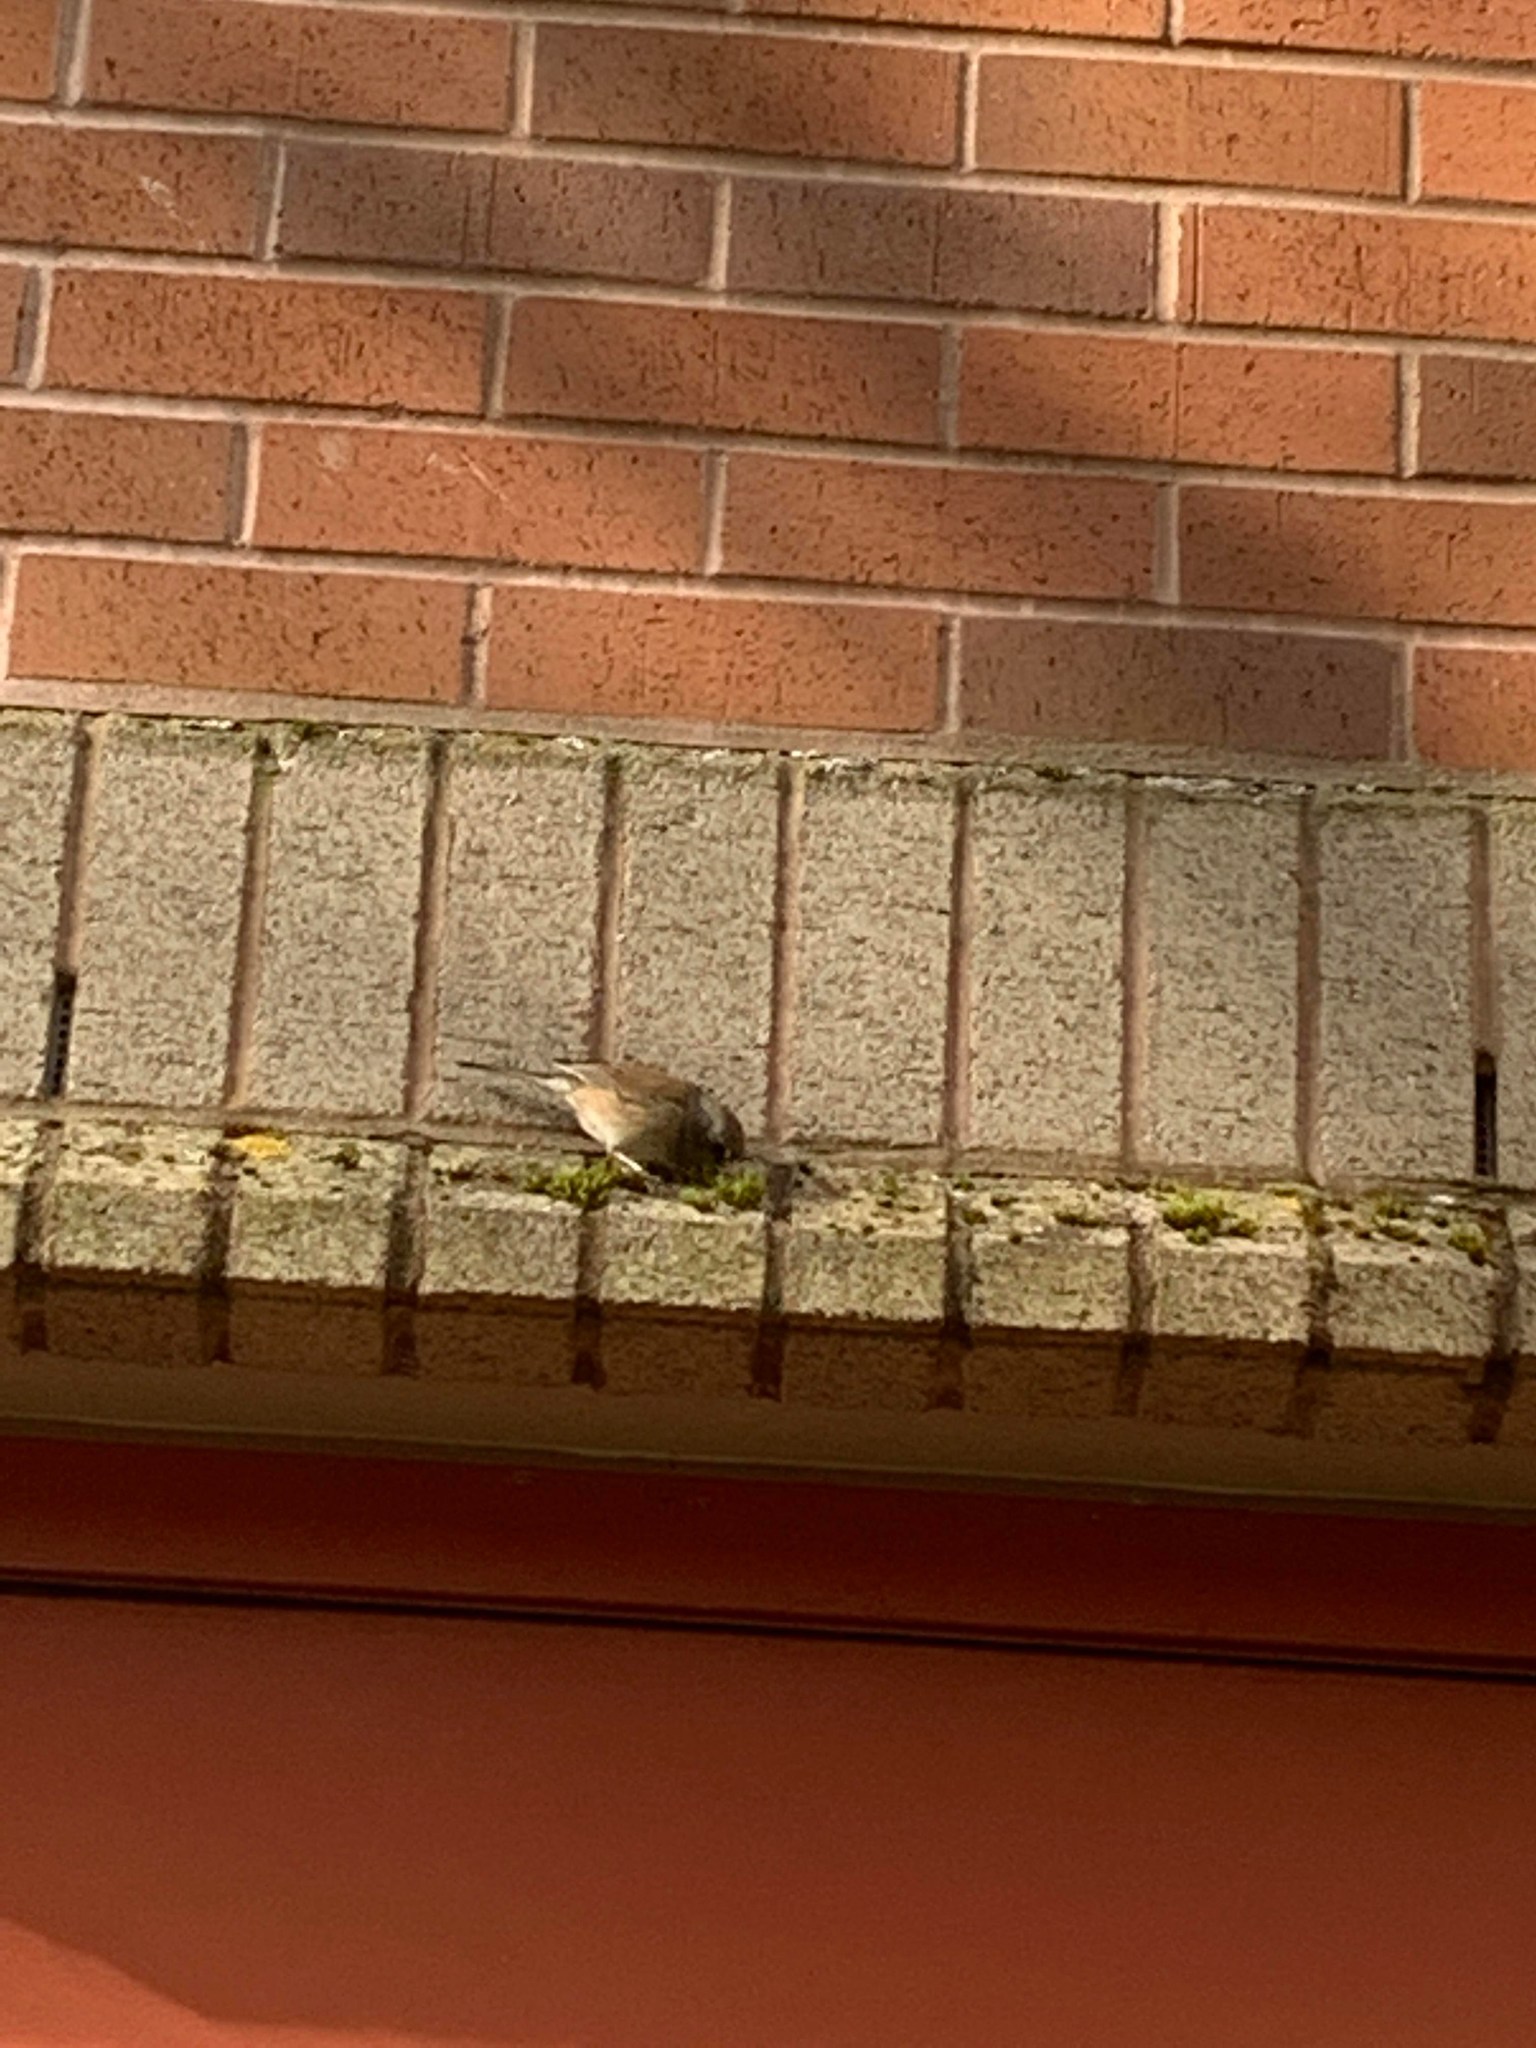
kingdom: Animalia
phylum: Chordata
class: Aves
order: Passeriformes
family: Passerellidae
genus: Junco
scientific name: Junco hyemalis
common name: Dark-eyed junco
